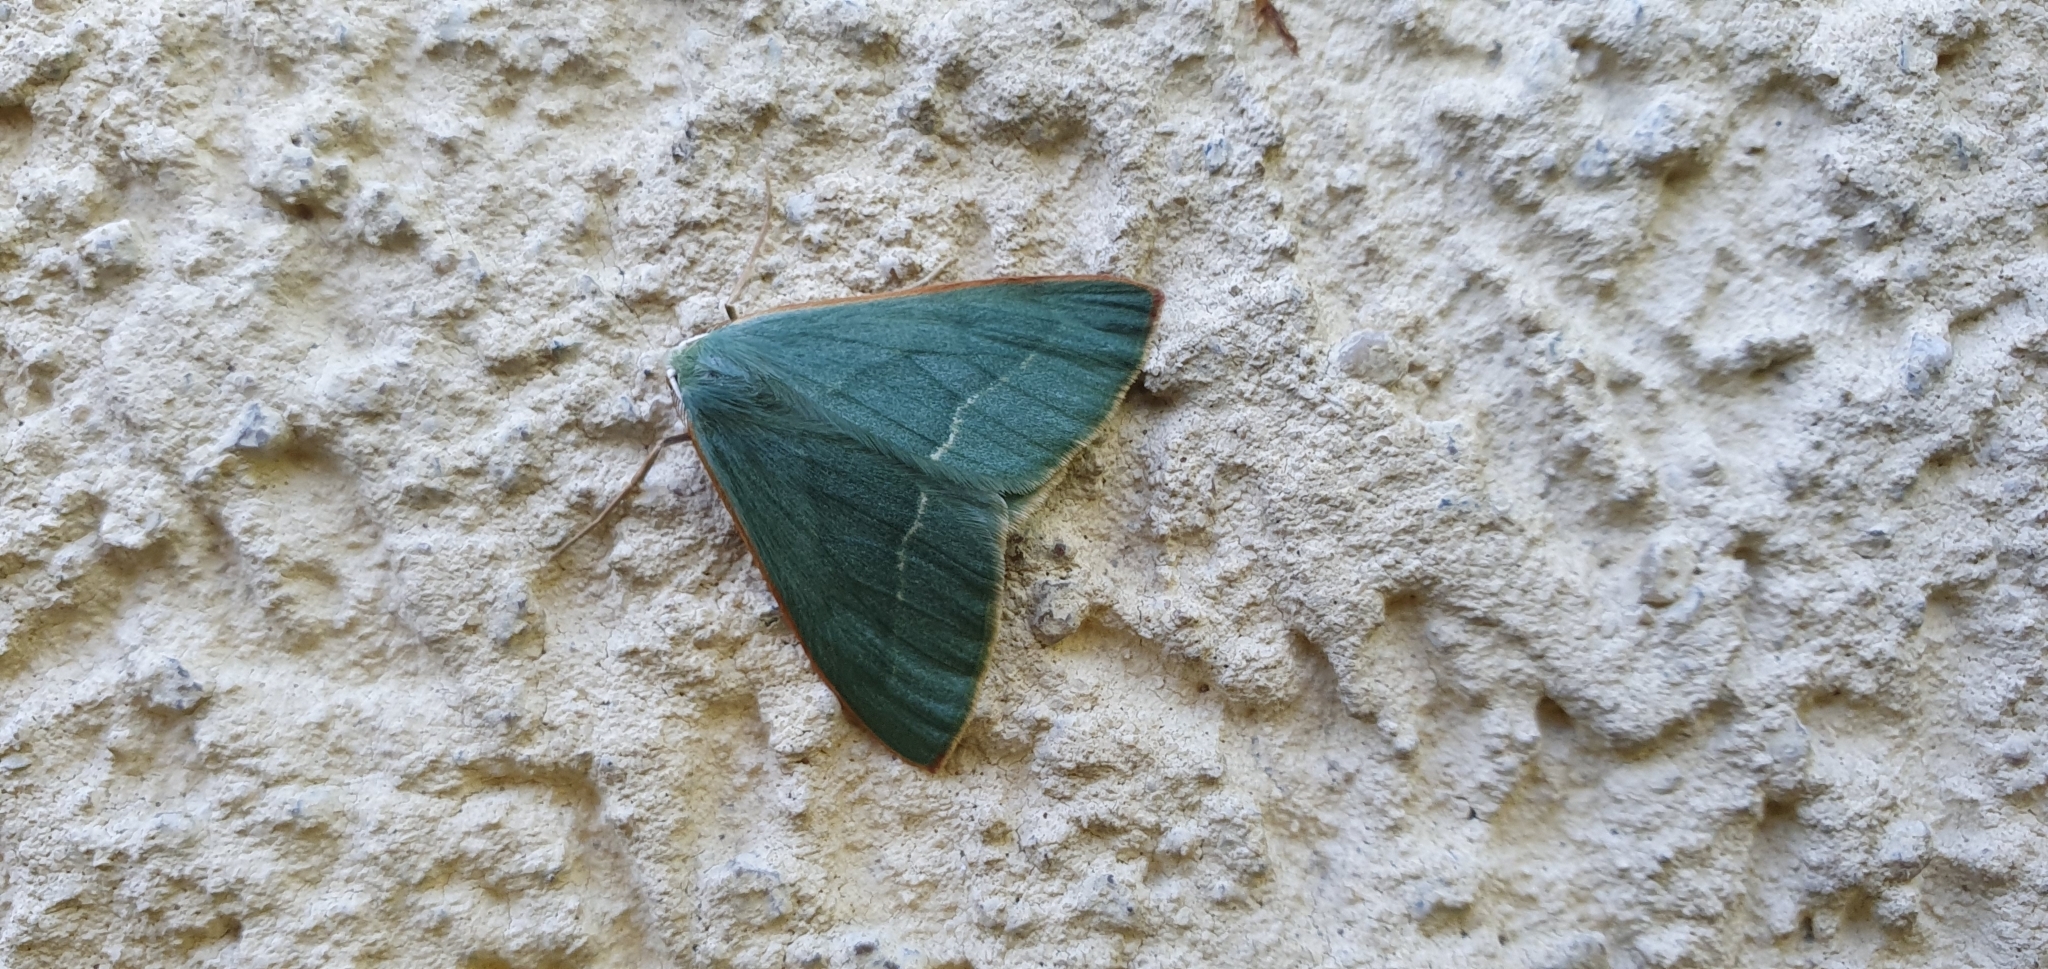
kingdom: Animalia
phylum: Arthropoda
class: Insecta
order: Lepidoptera
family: Geometridae
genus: Hylaea
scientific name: Hylaea fasciaria
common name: Barred red
